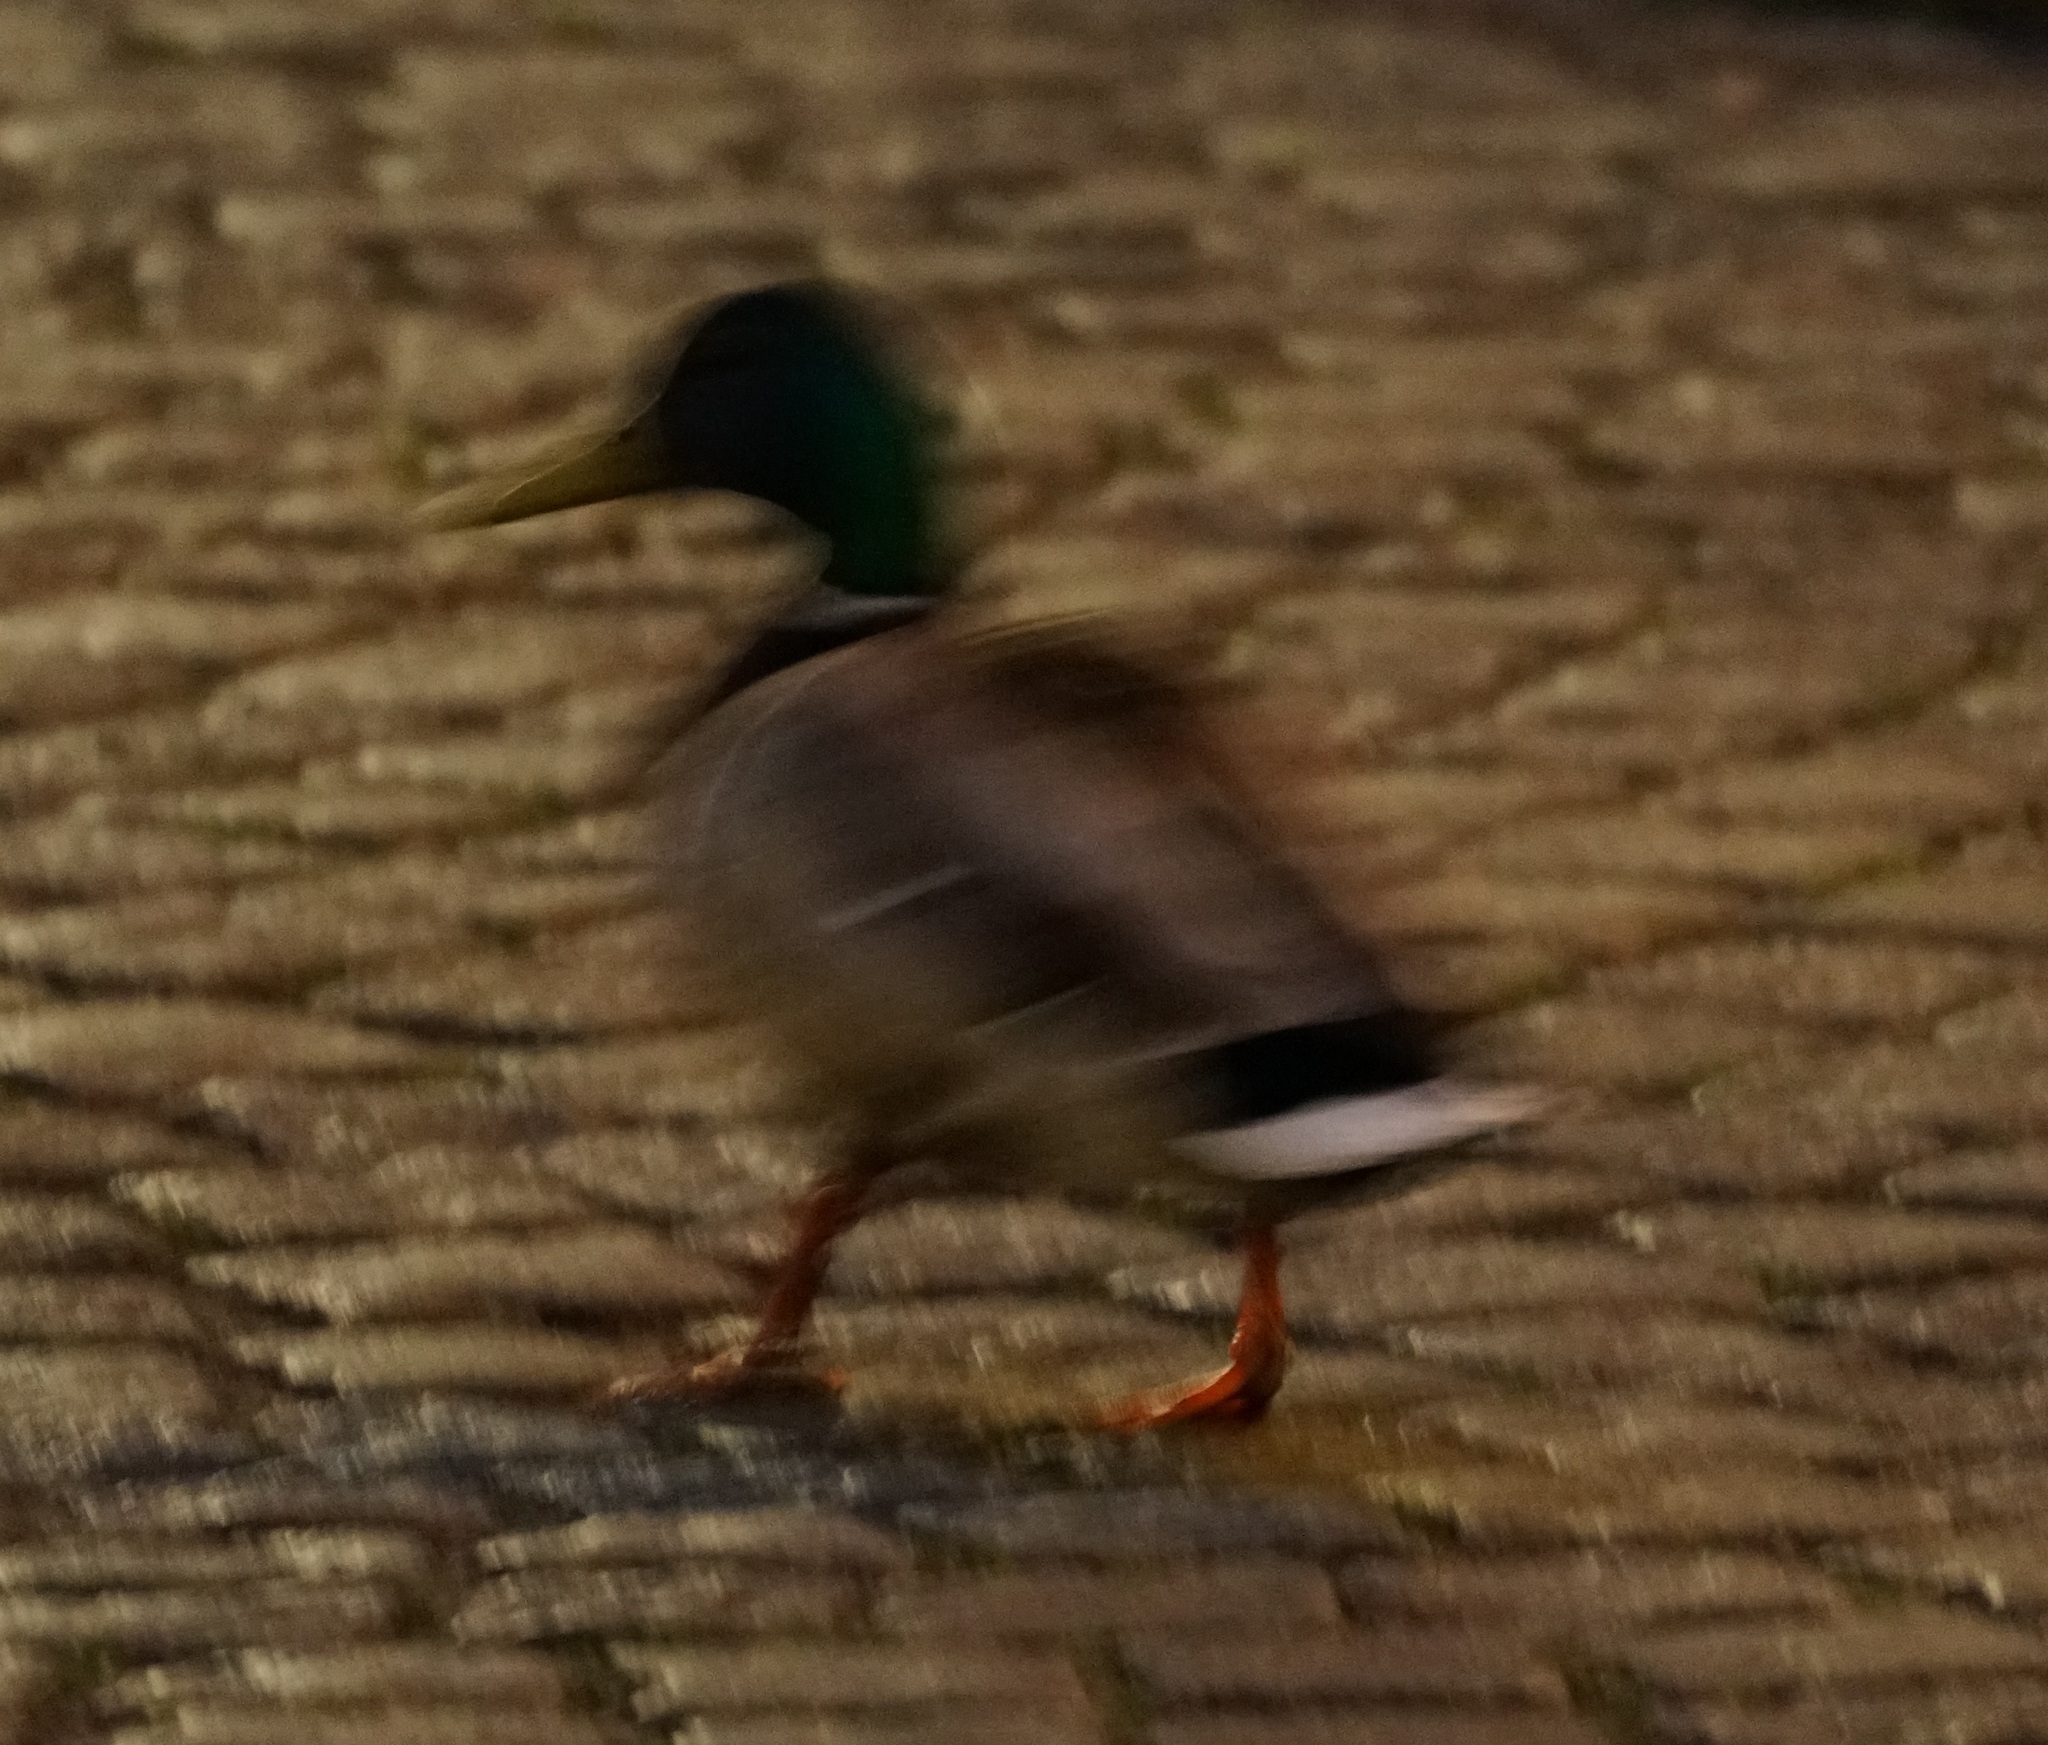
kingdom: Animalia
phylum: Chordata
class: Aves
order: Anseriformes
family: Anatidae
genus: Anas
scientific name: Anas platyrhynchos
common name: Mallard
